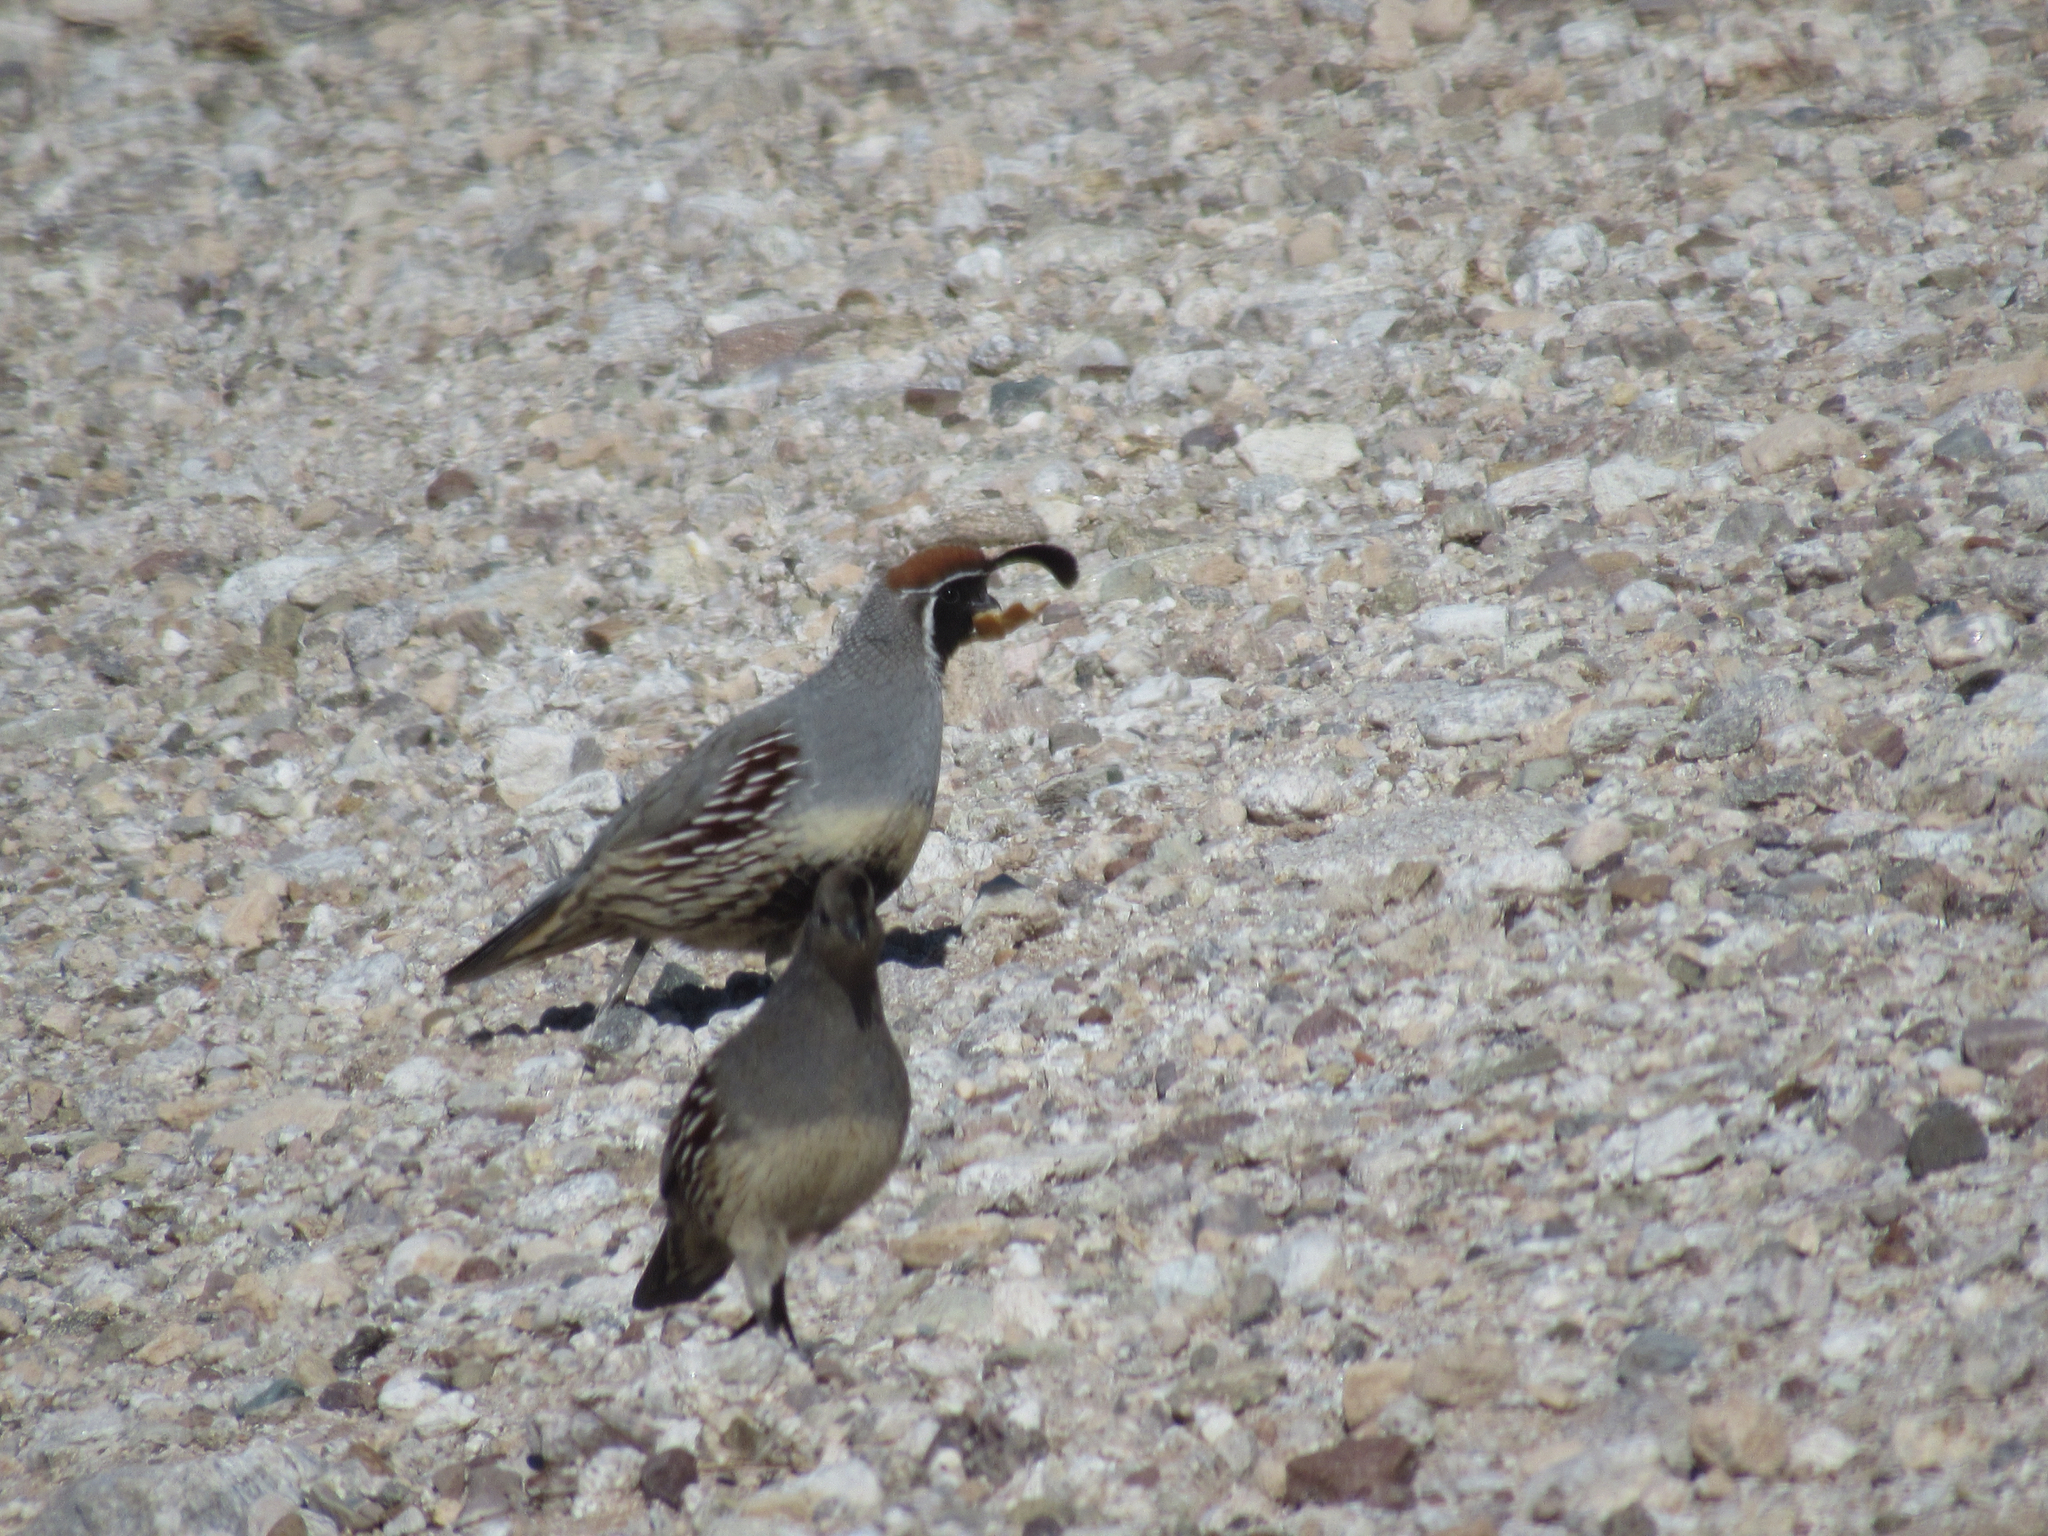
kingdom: Animalia
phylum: Chordata
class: Aves
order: Galliformes
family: Odontophoridae
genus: Callipepla
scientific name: Callipepla gambelii
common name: Gambel's quail
